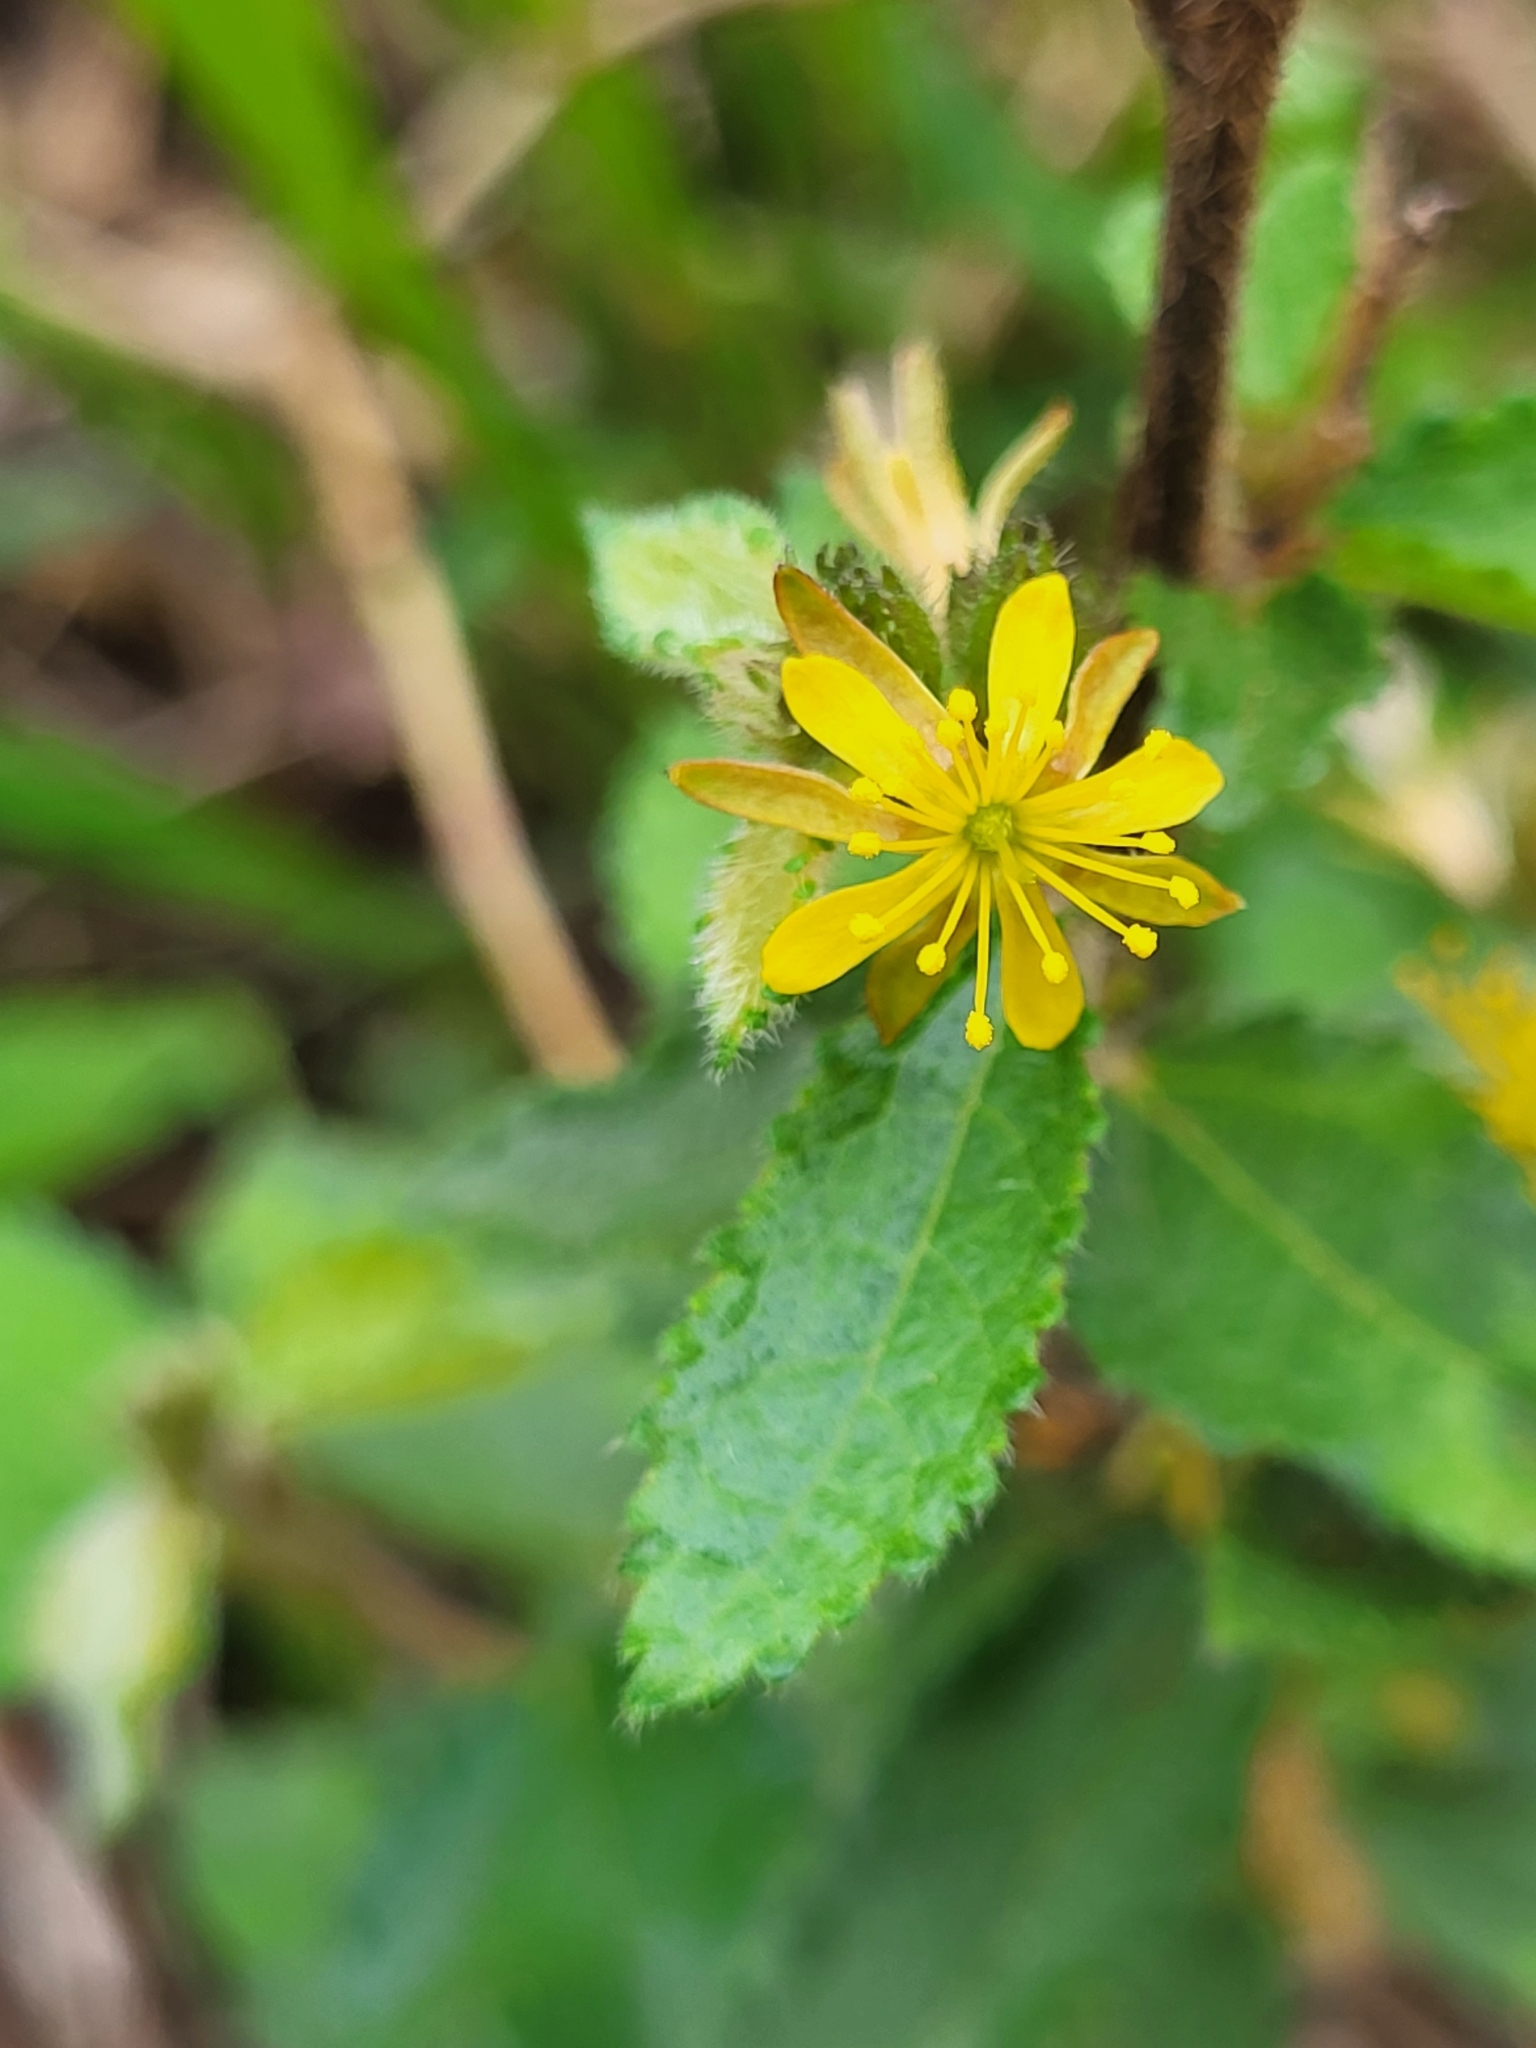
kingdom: Plantae
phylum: Tracheophyta
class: Magnoliopsida
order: Malvales
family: Malvaceae
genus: Triumfetta
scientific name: Triumfetta semitriloba
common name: Sacramento burbark
